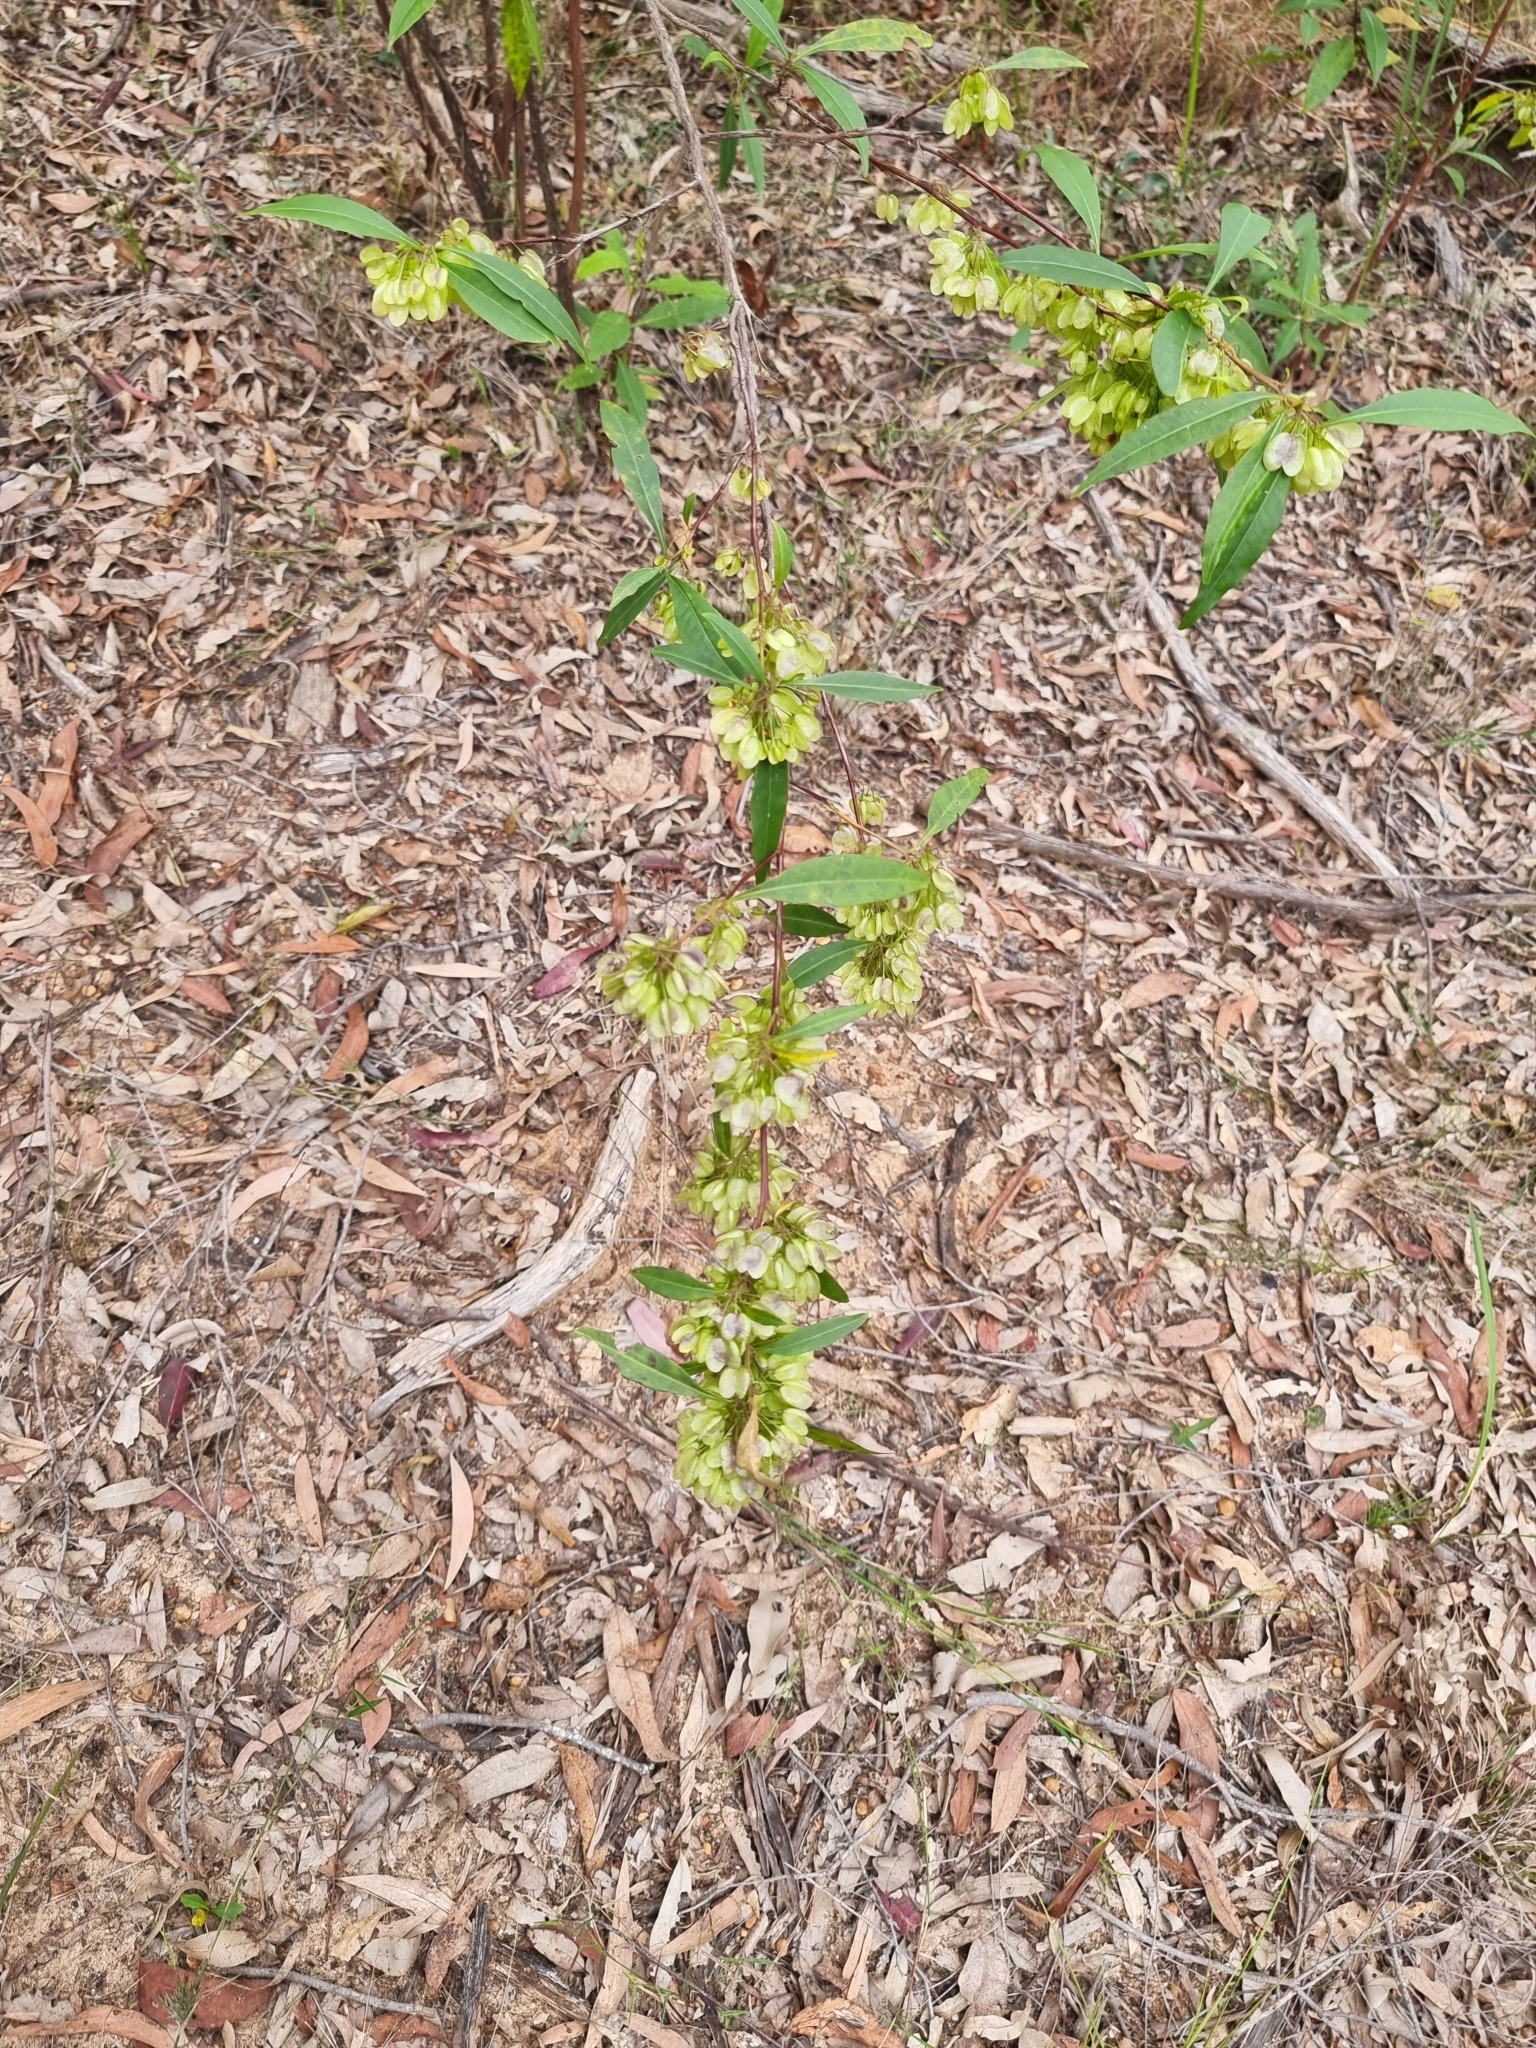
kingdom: Plantae
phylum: Tracheophyta
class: Magnoliopsida
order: Sapindales
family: Sapindaceae
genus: Dodonaea
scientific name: Dodonaea triquetra
